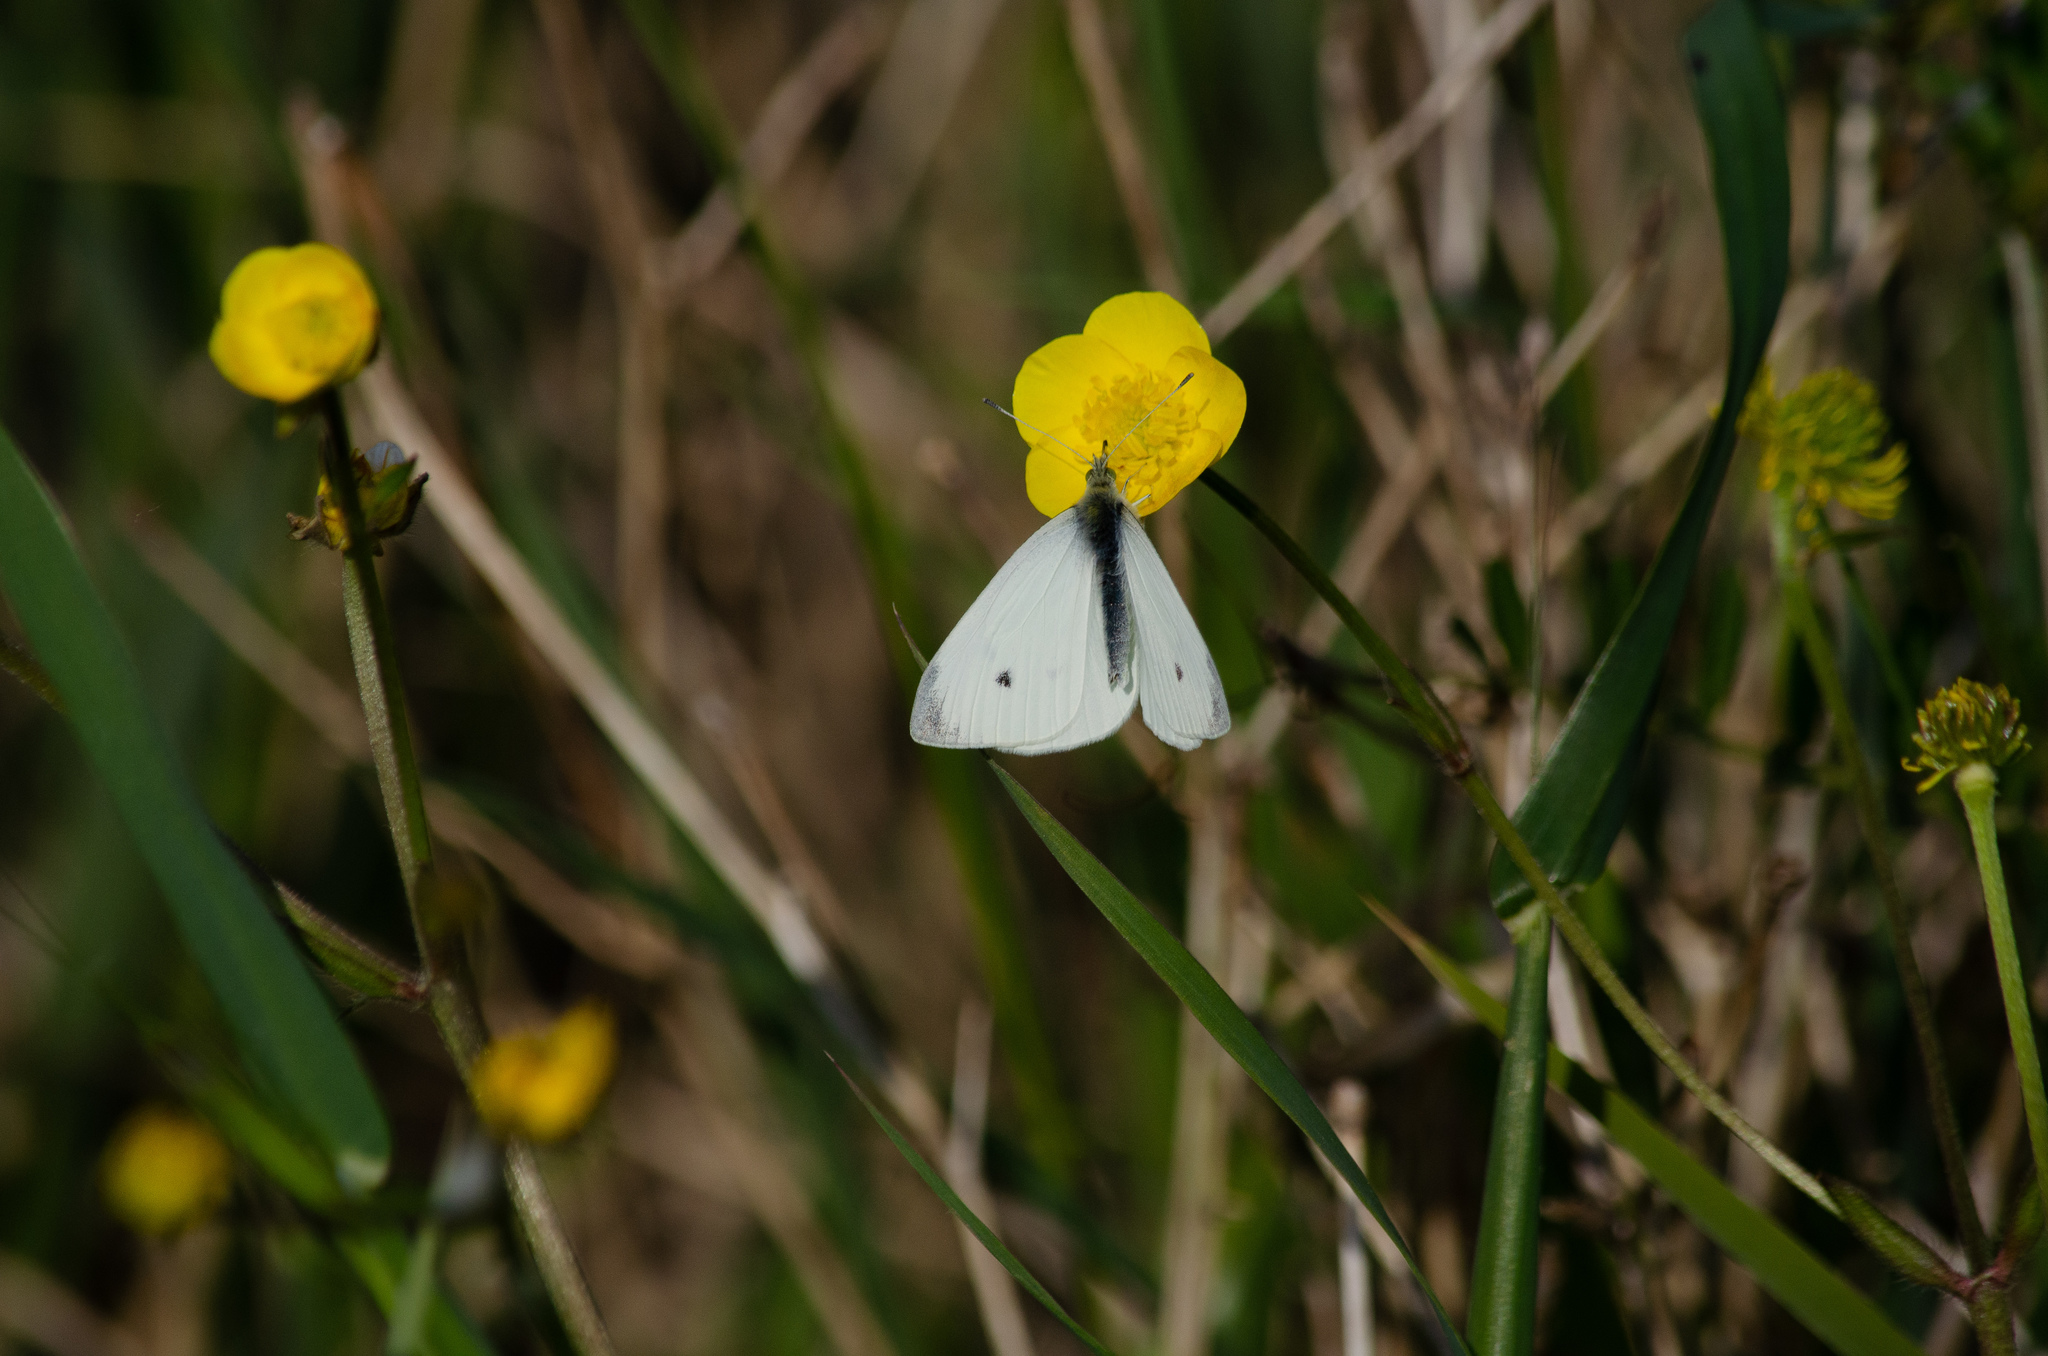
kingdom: Animalia
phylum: Arthropoda
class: Insecta
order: Lepidoptera
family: Pieridae
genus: Pieris
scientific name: Pieris rapae
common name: Small white
